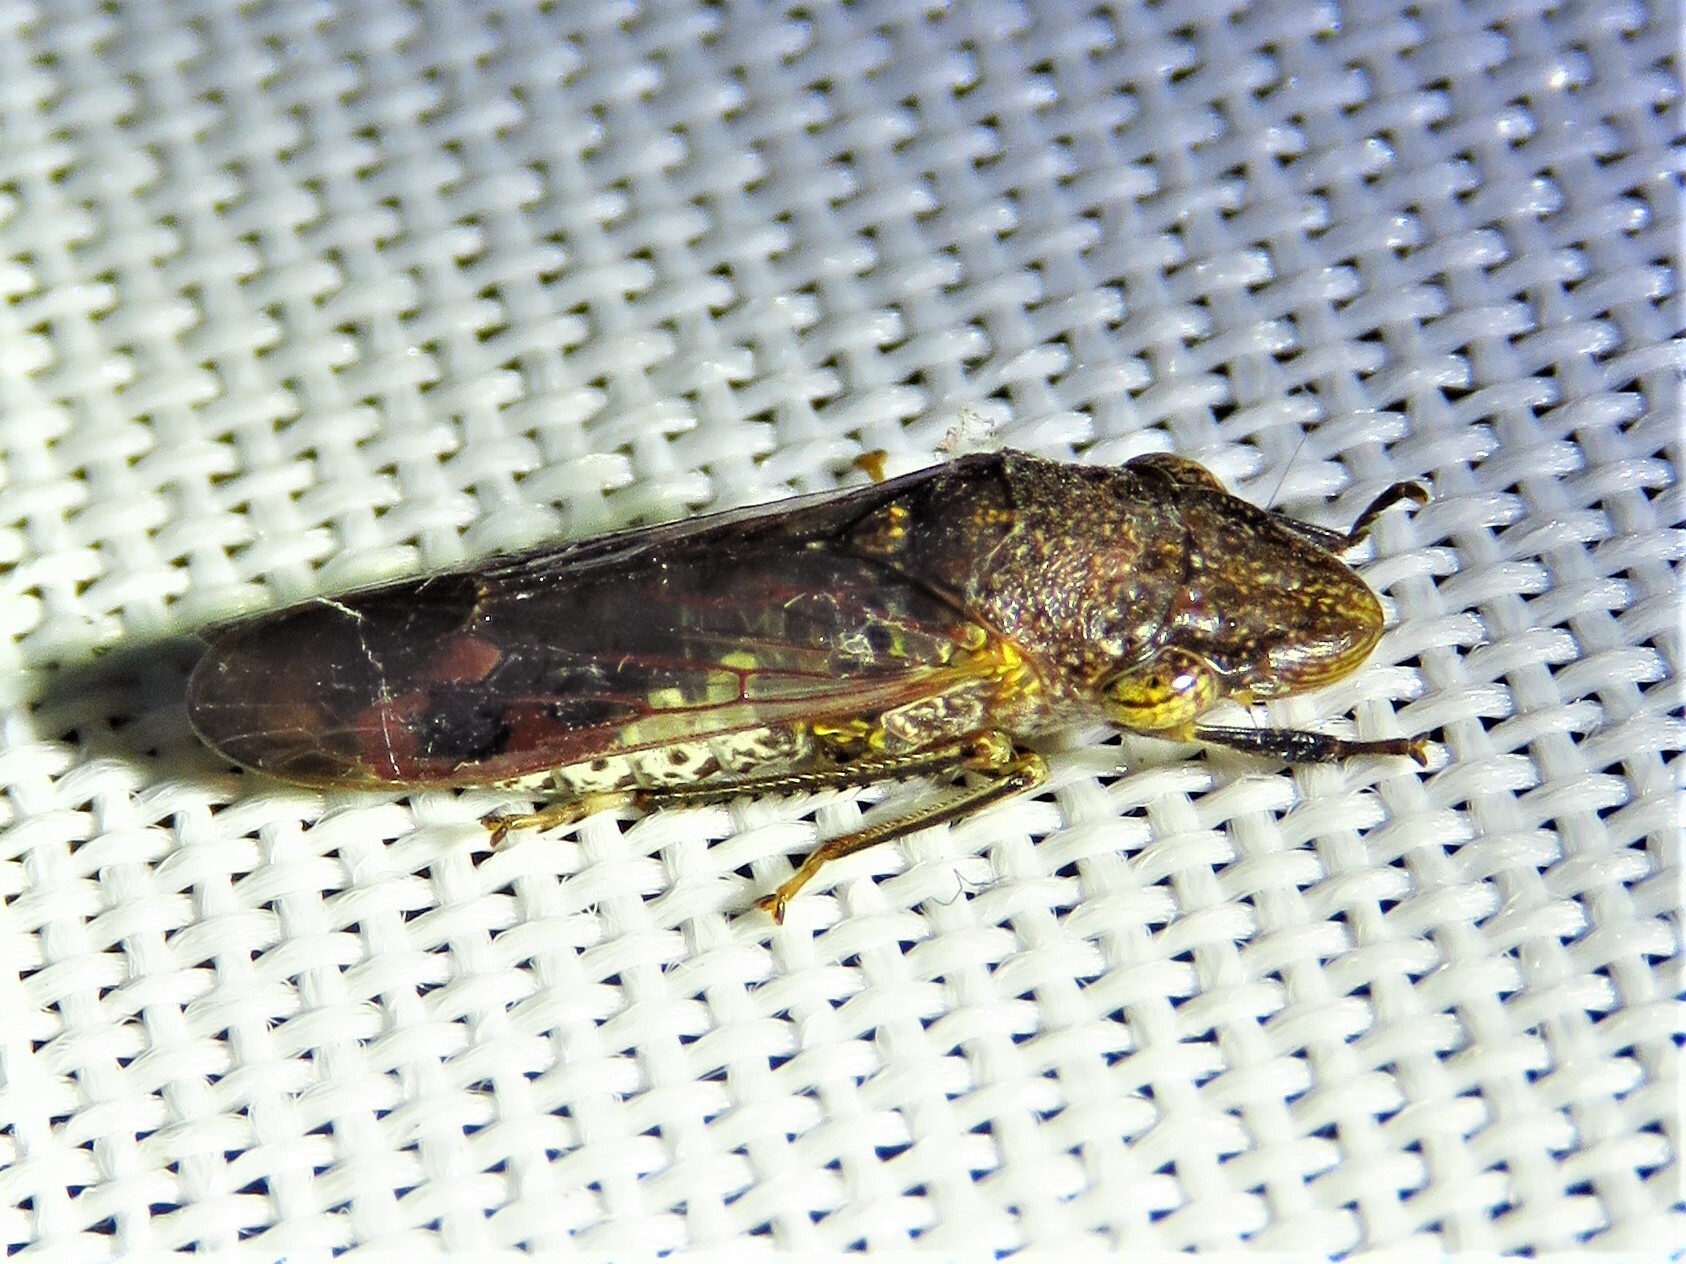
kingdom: Animalia
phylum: Arthropoda
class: Insecta
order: Hemiptera
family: Cicadellidae
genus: Homalodisca
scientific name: Homalodisca vitripennis
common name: Glassy-winged sharpshooter
